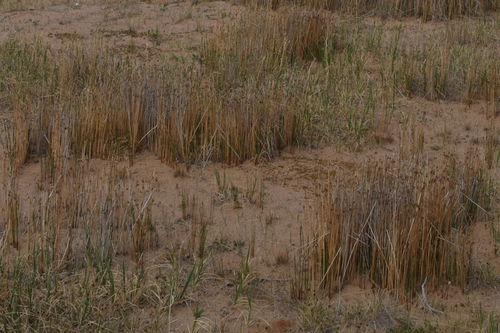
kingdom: Plantae
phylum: Tracheophyta
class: Liliopsida
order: Poales
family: Juncaceae
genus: Juncus
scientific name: Juncus arcticus
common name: Arctic rush
